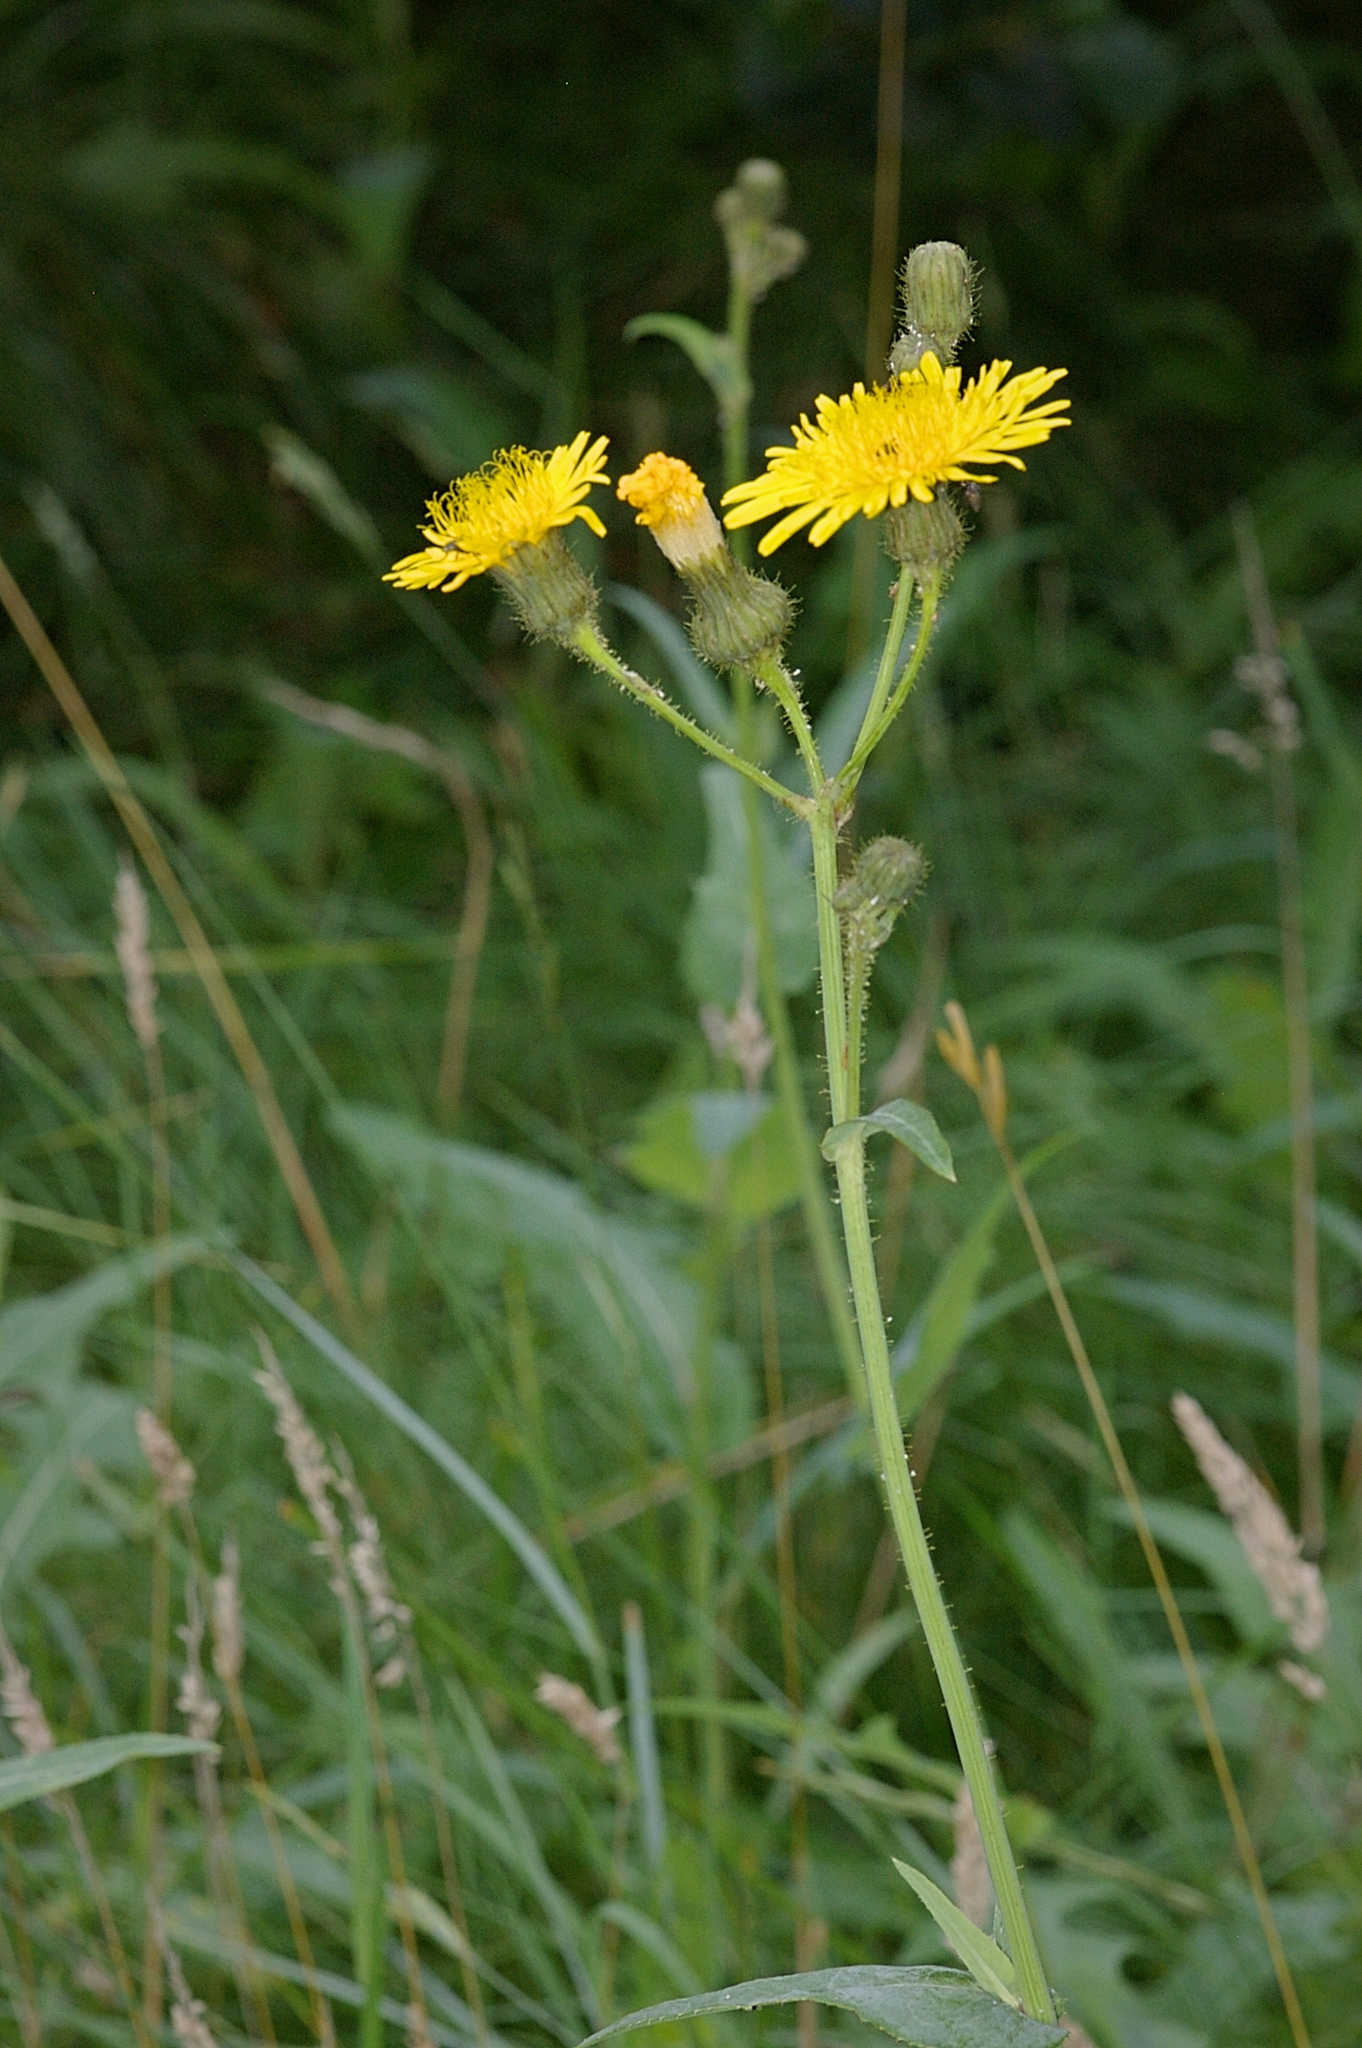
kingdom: Plantae
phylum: Tracheophyta
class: Magnoliopsida
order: Asterales
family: Asteraceae
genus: Sonchus
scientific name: Sonchus arvensis
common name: Perennial sow-thistle
